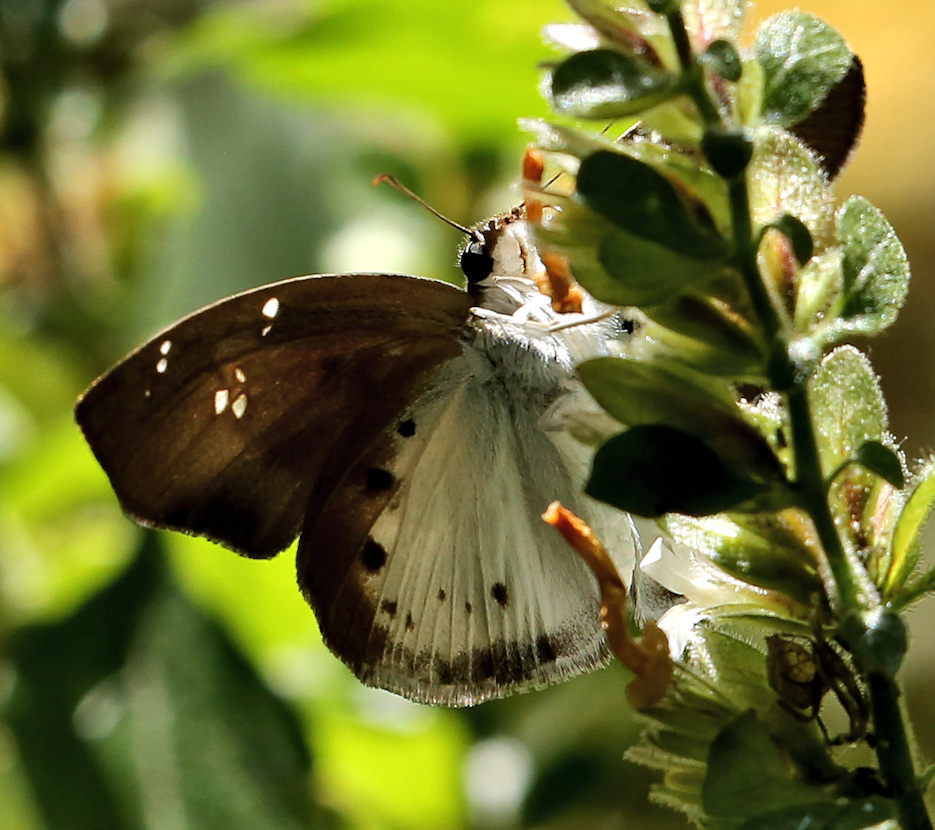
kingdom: Animalia
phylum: Arthropoda
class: Insecta
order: Lepidoptera
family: Hesperiidae
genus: Tagiades
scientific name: Tagiades flesus
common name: Clouded flat
